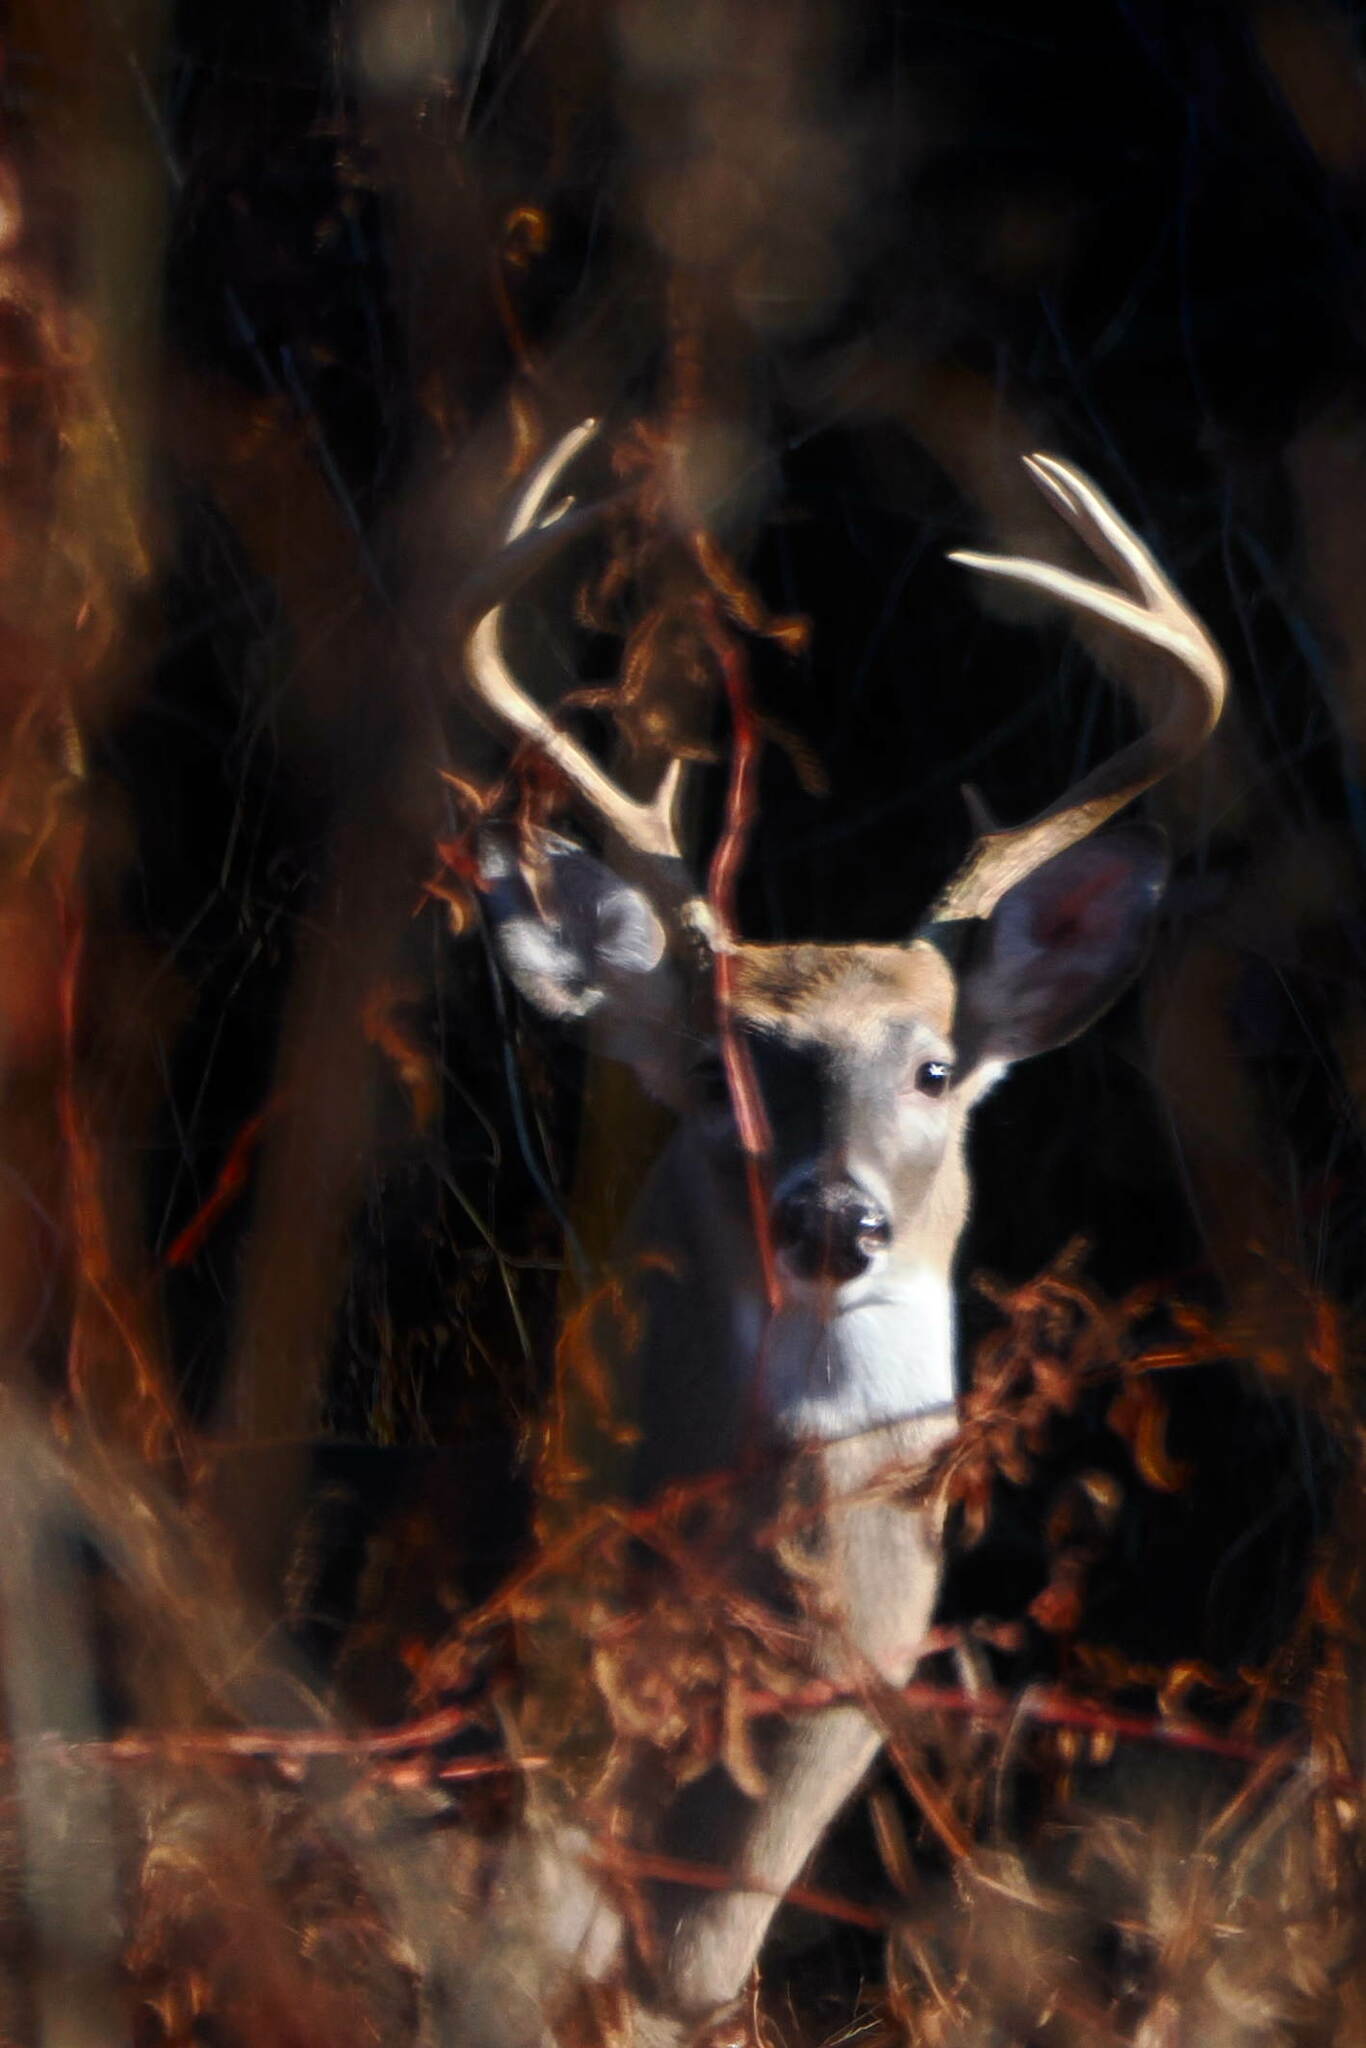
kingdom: Animalia
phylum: Chordata
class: Mammalia
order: Artiodactyla
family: Cervidae
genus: Odocoileus
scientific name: Odocoileus virginianus
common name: White-tailed deer
